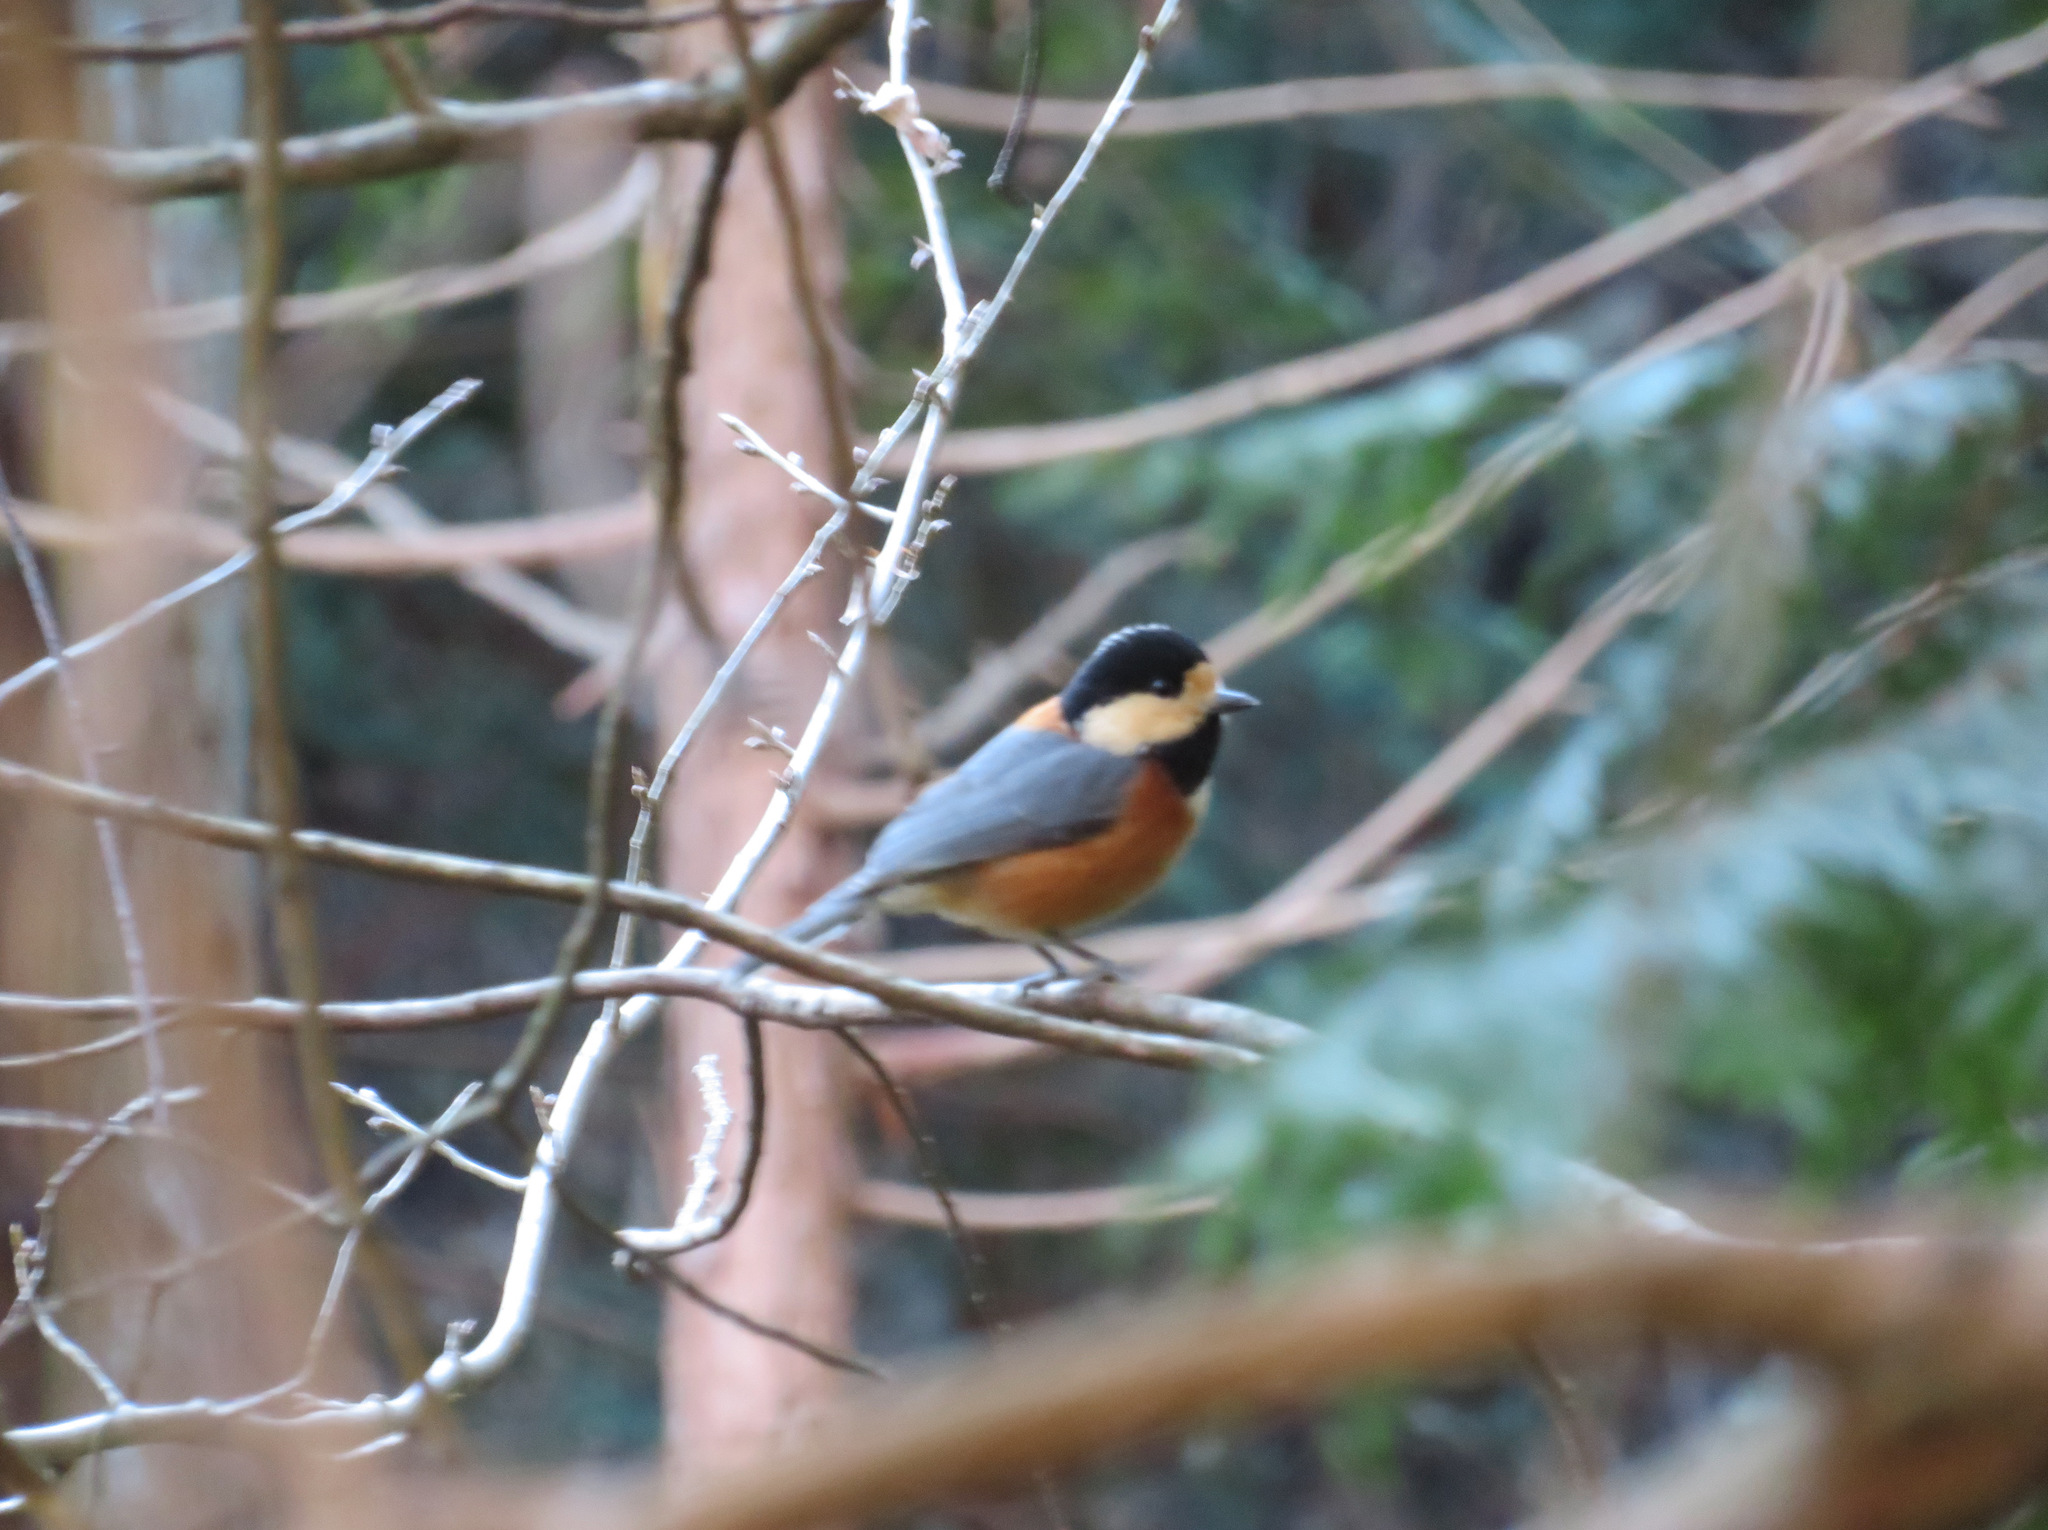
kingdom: Animalia
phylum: Chordata
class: Aves
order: Passeriformes
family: Paridae
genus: Poecile
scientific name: Poecile varius
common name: Varied tit
